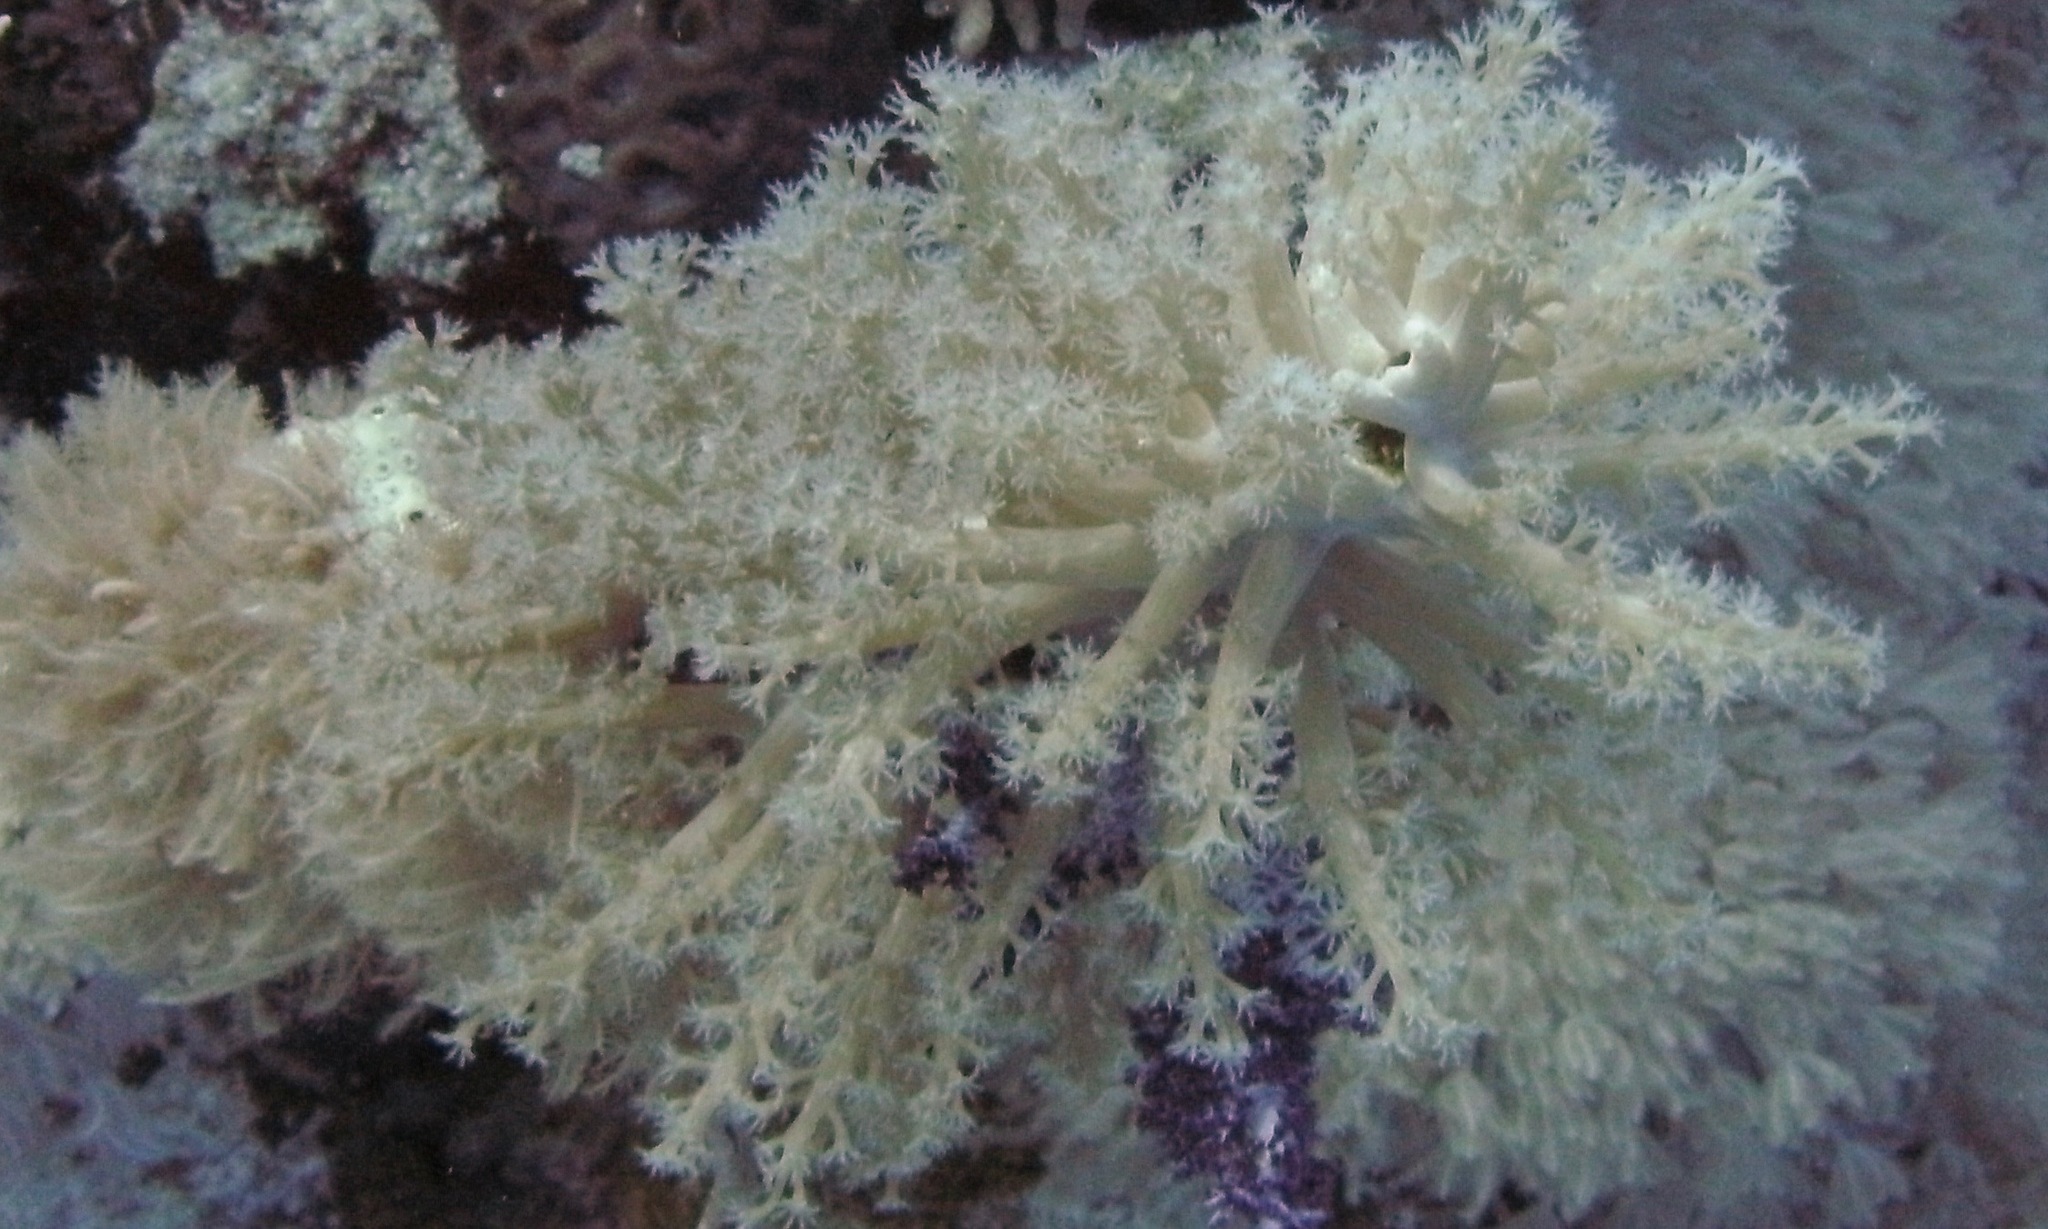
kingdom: Animalia
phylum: Cnidaria
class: Anthozoa
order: Malacalcyonacea
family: Lemnaliadae
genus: Paralemnalia
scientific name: Paralemnalia
